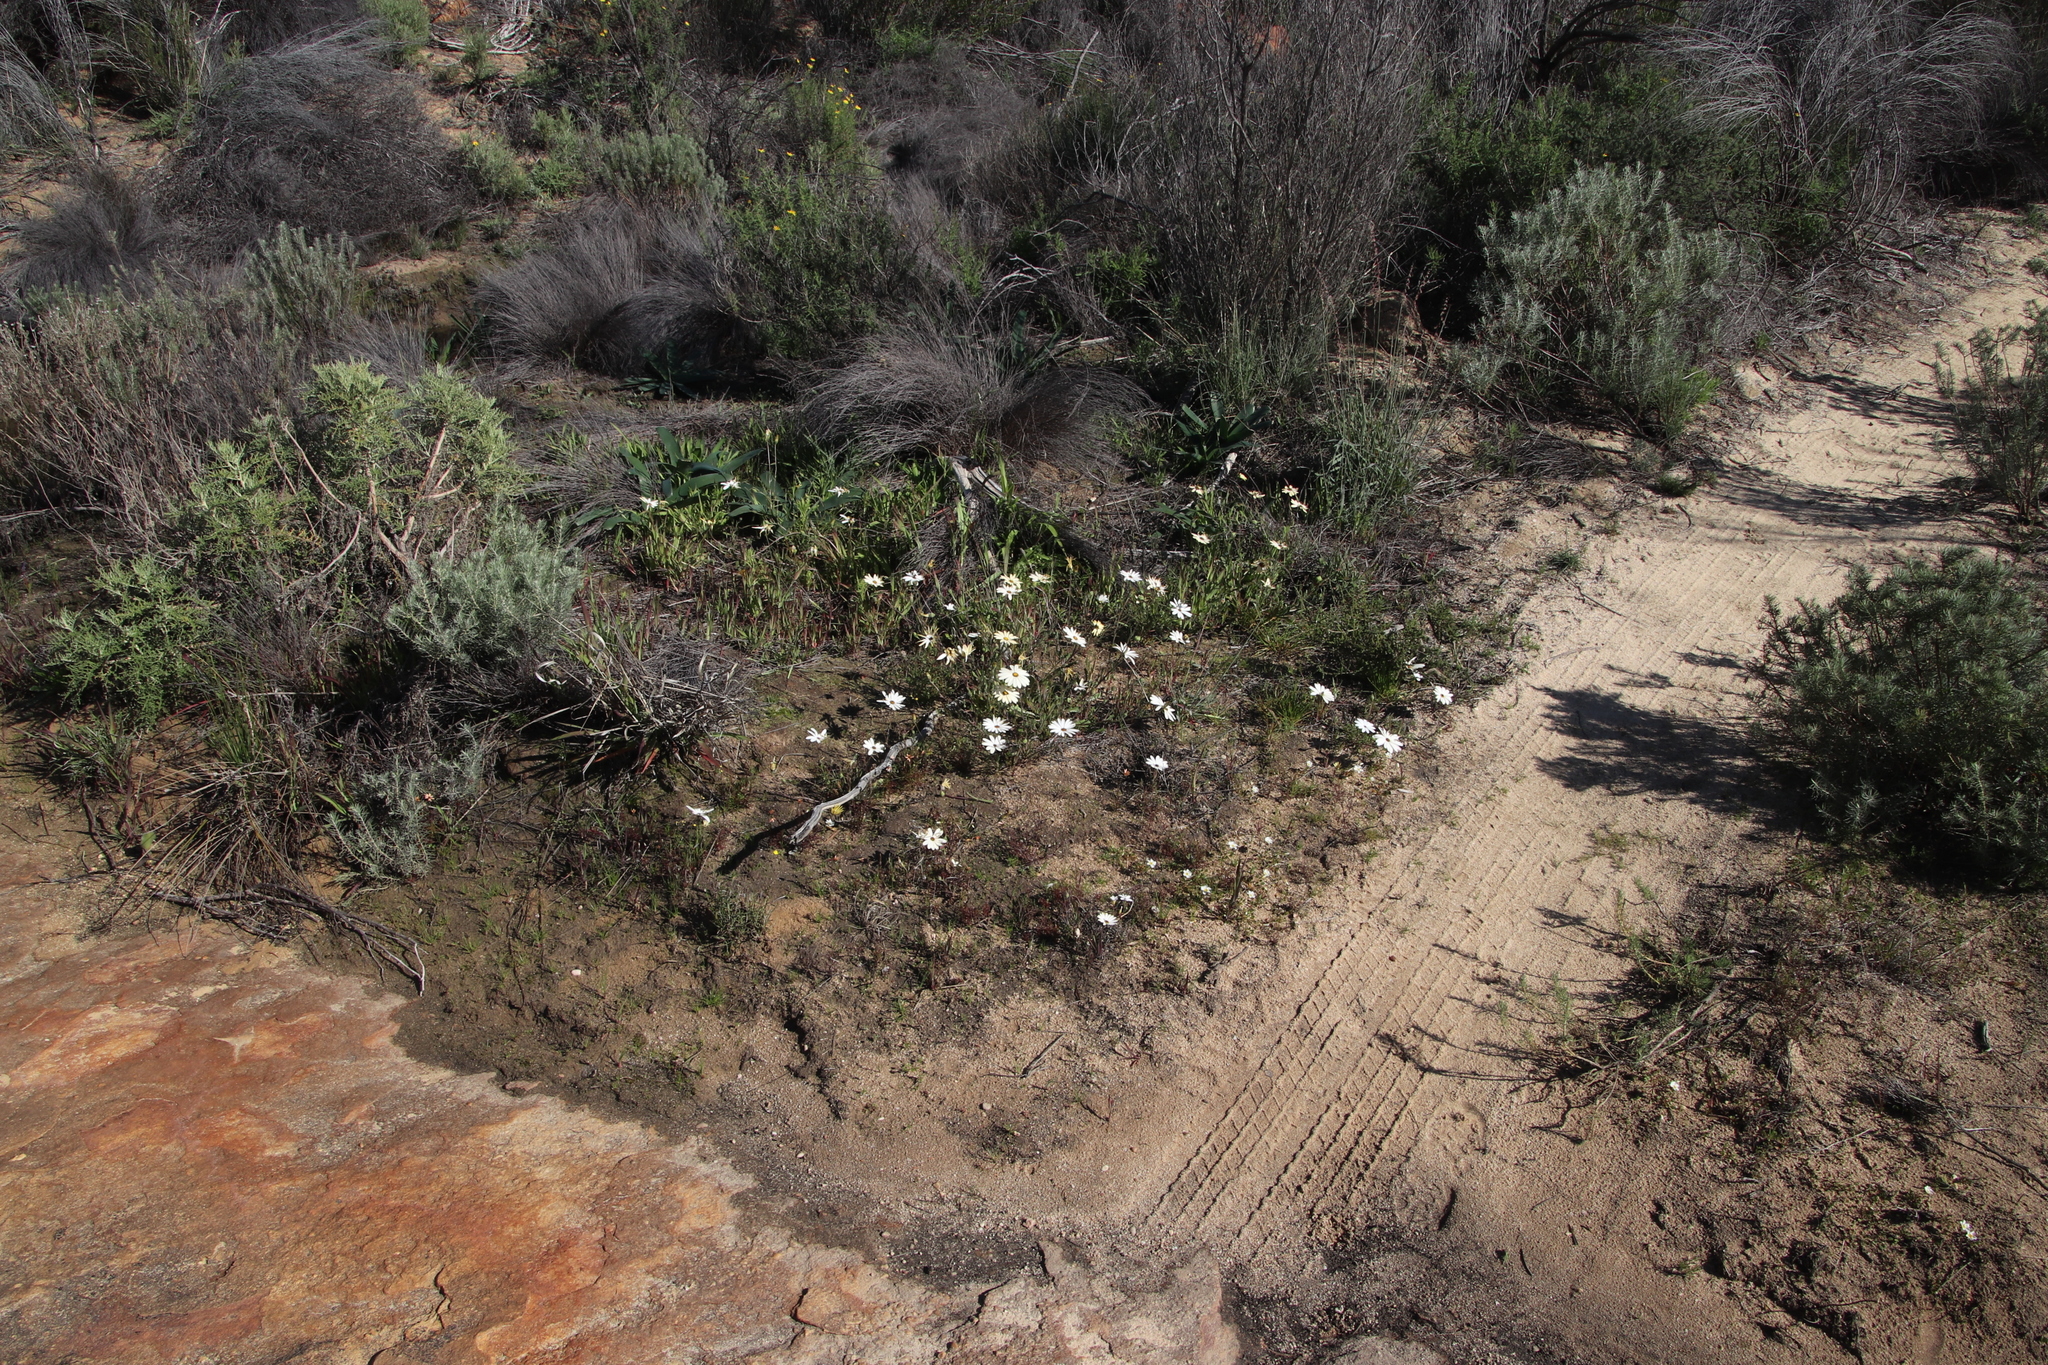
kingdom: Plantae
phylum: Tracheophyta
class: Magnoliopsida
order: Asterales
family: Asteraceae
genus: Dimorphotheca
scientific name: Dimorphotheca pluvialis
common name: Weather prophet
